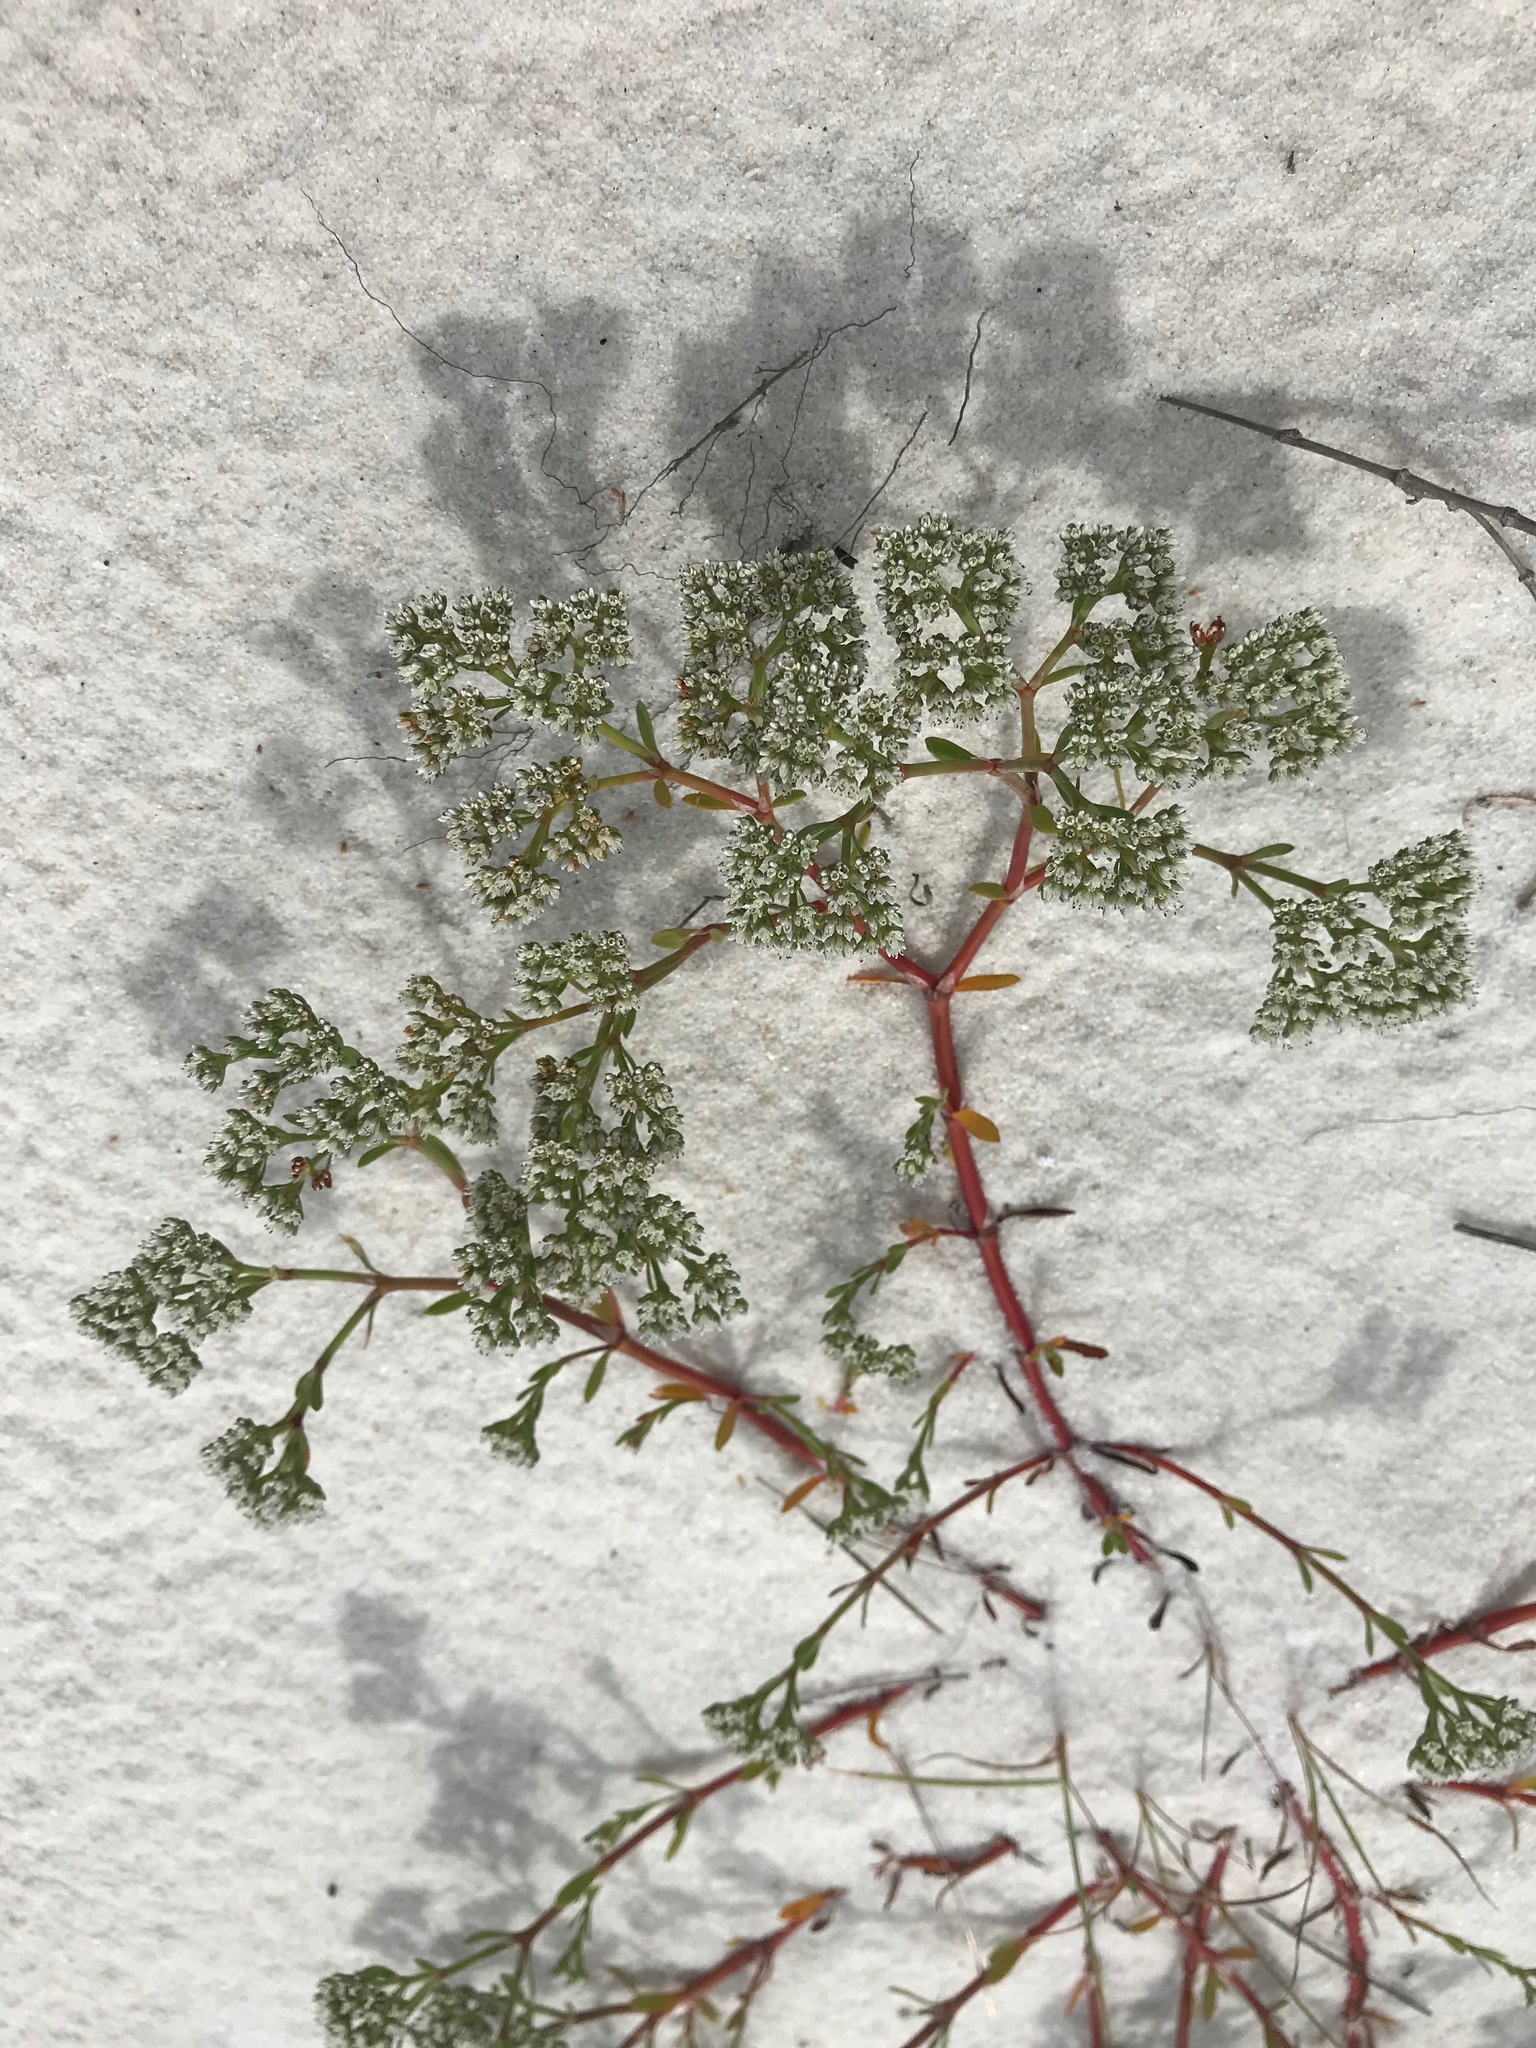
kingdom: Plantae
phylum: Tracheophyta
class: Magnoliopsida
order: Caryophyllales
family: Caryophyllaceae
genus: Paronychia
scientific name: Paronychia erecta
